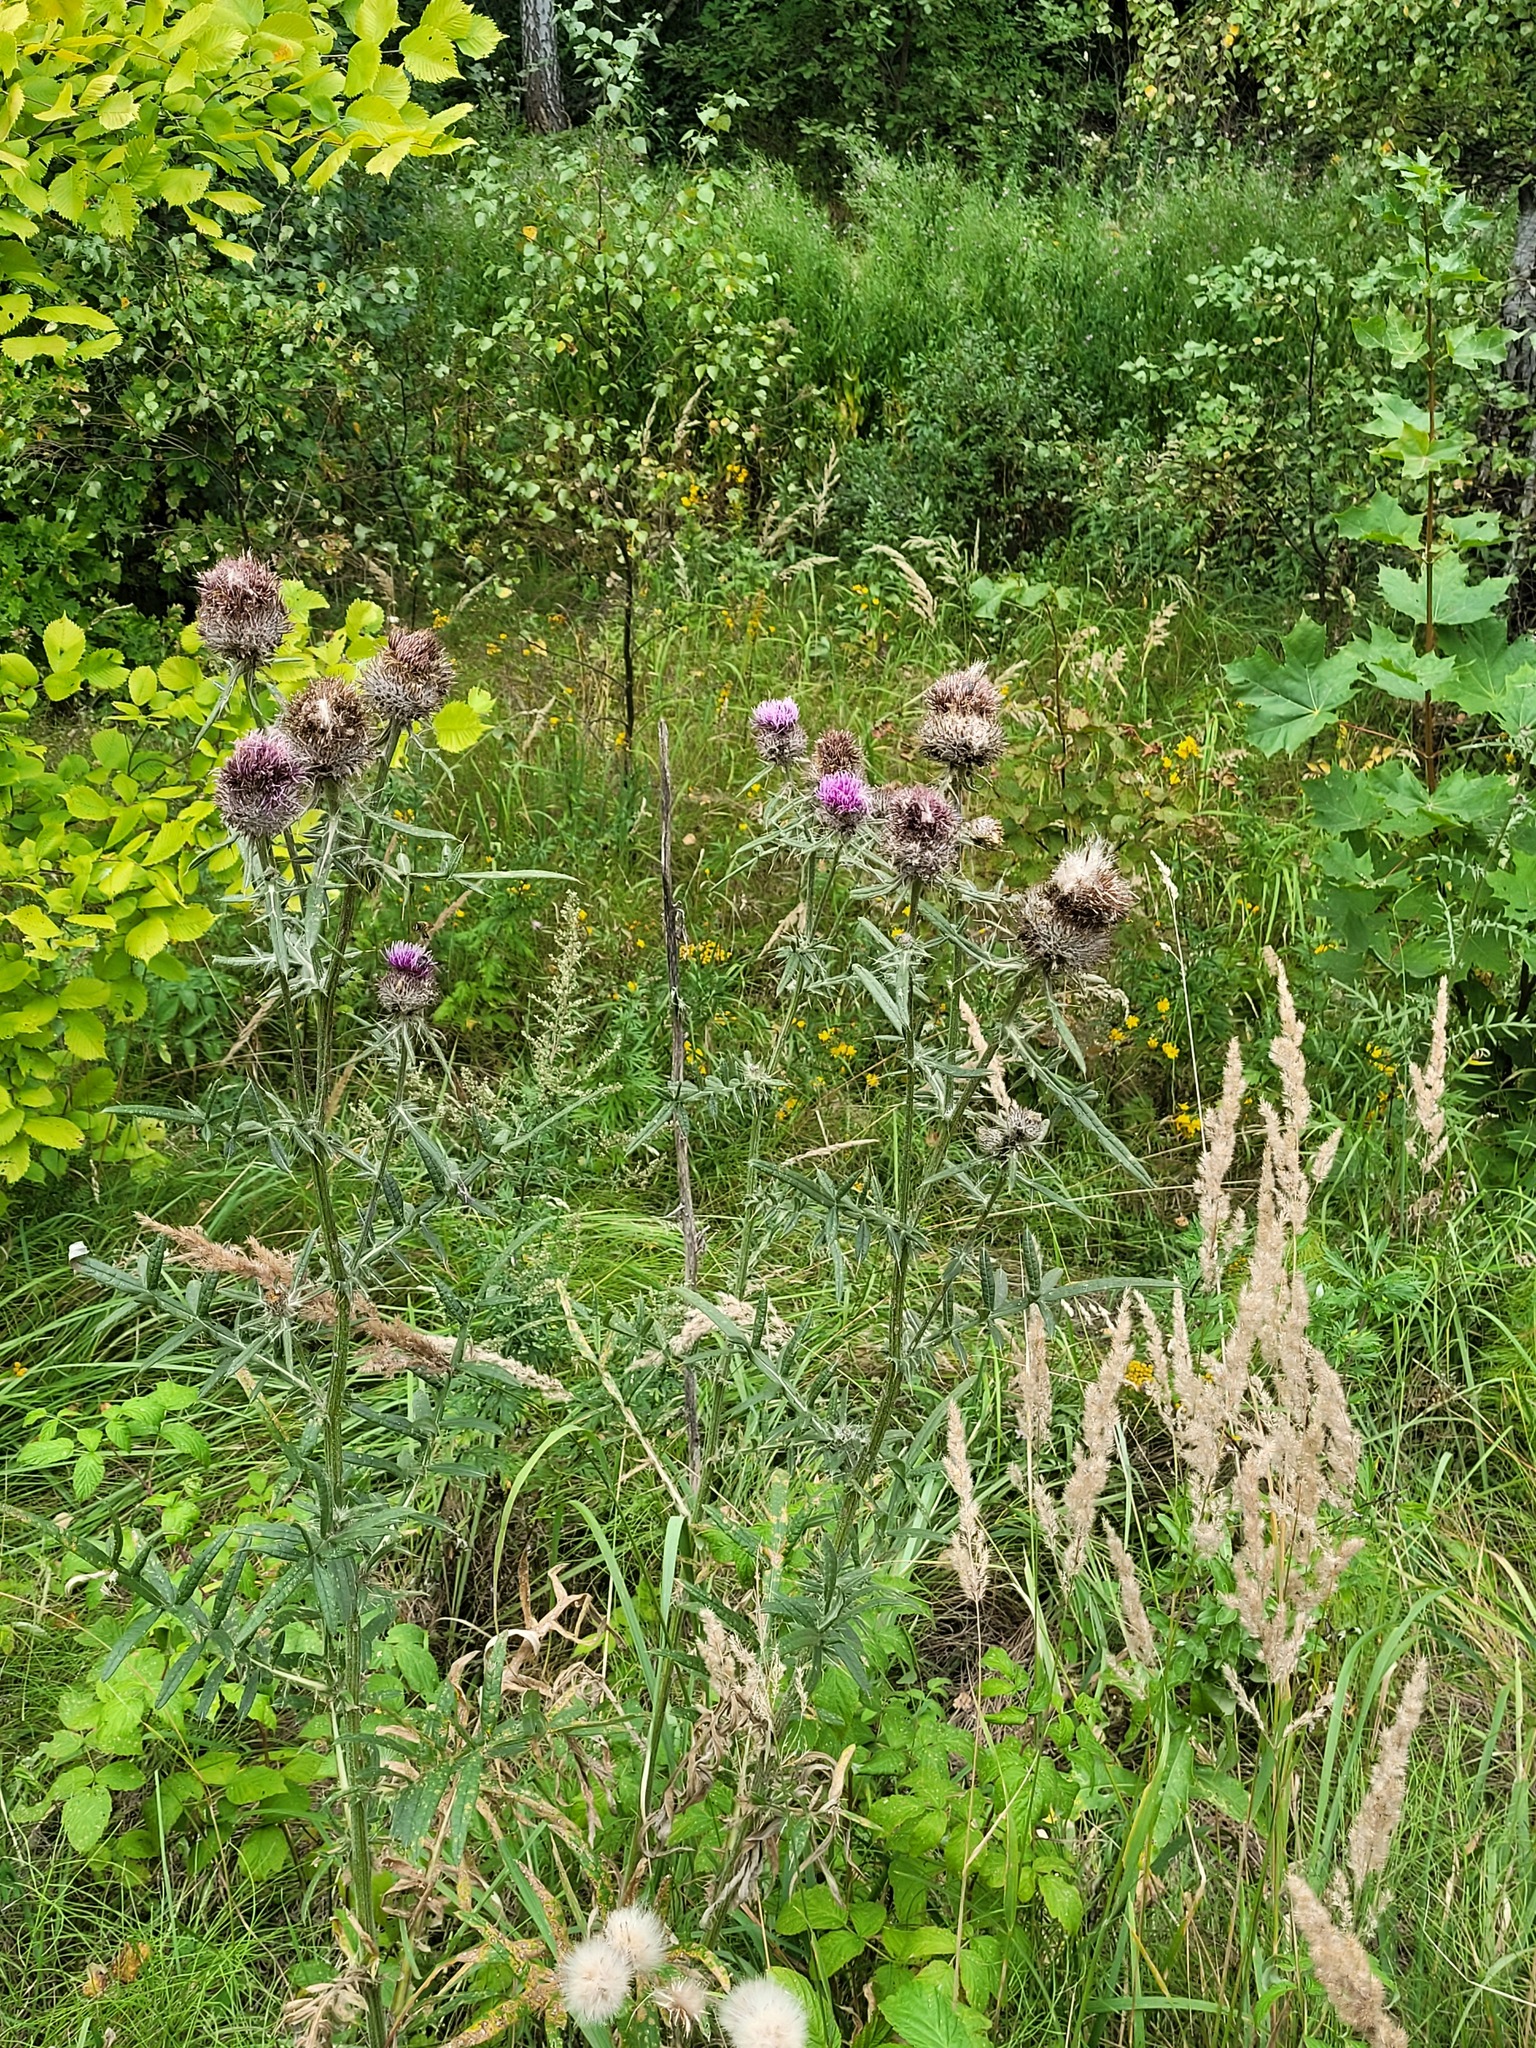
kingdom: Plantae
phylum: Tracheophyta
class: Magnoliopsida
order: Asterales
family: Asteraceae
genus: Lophiolepis
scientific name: Lophiolepis decussata
